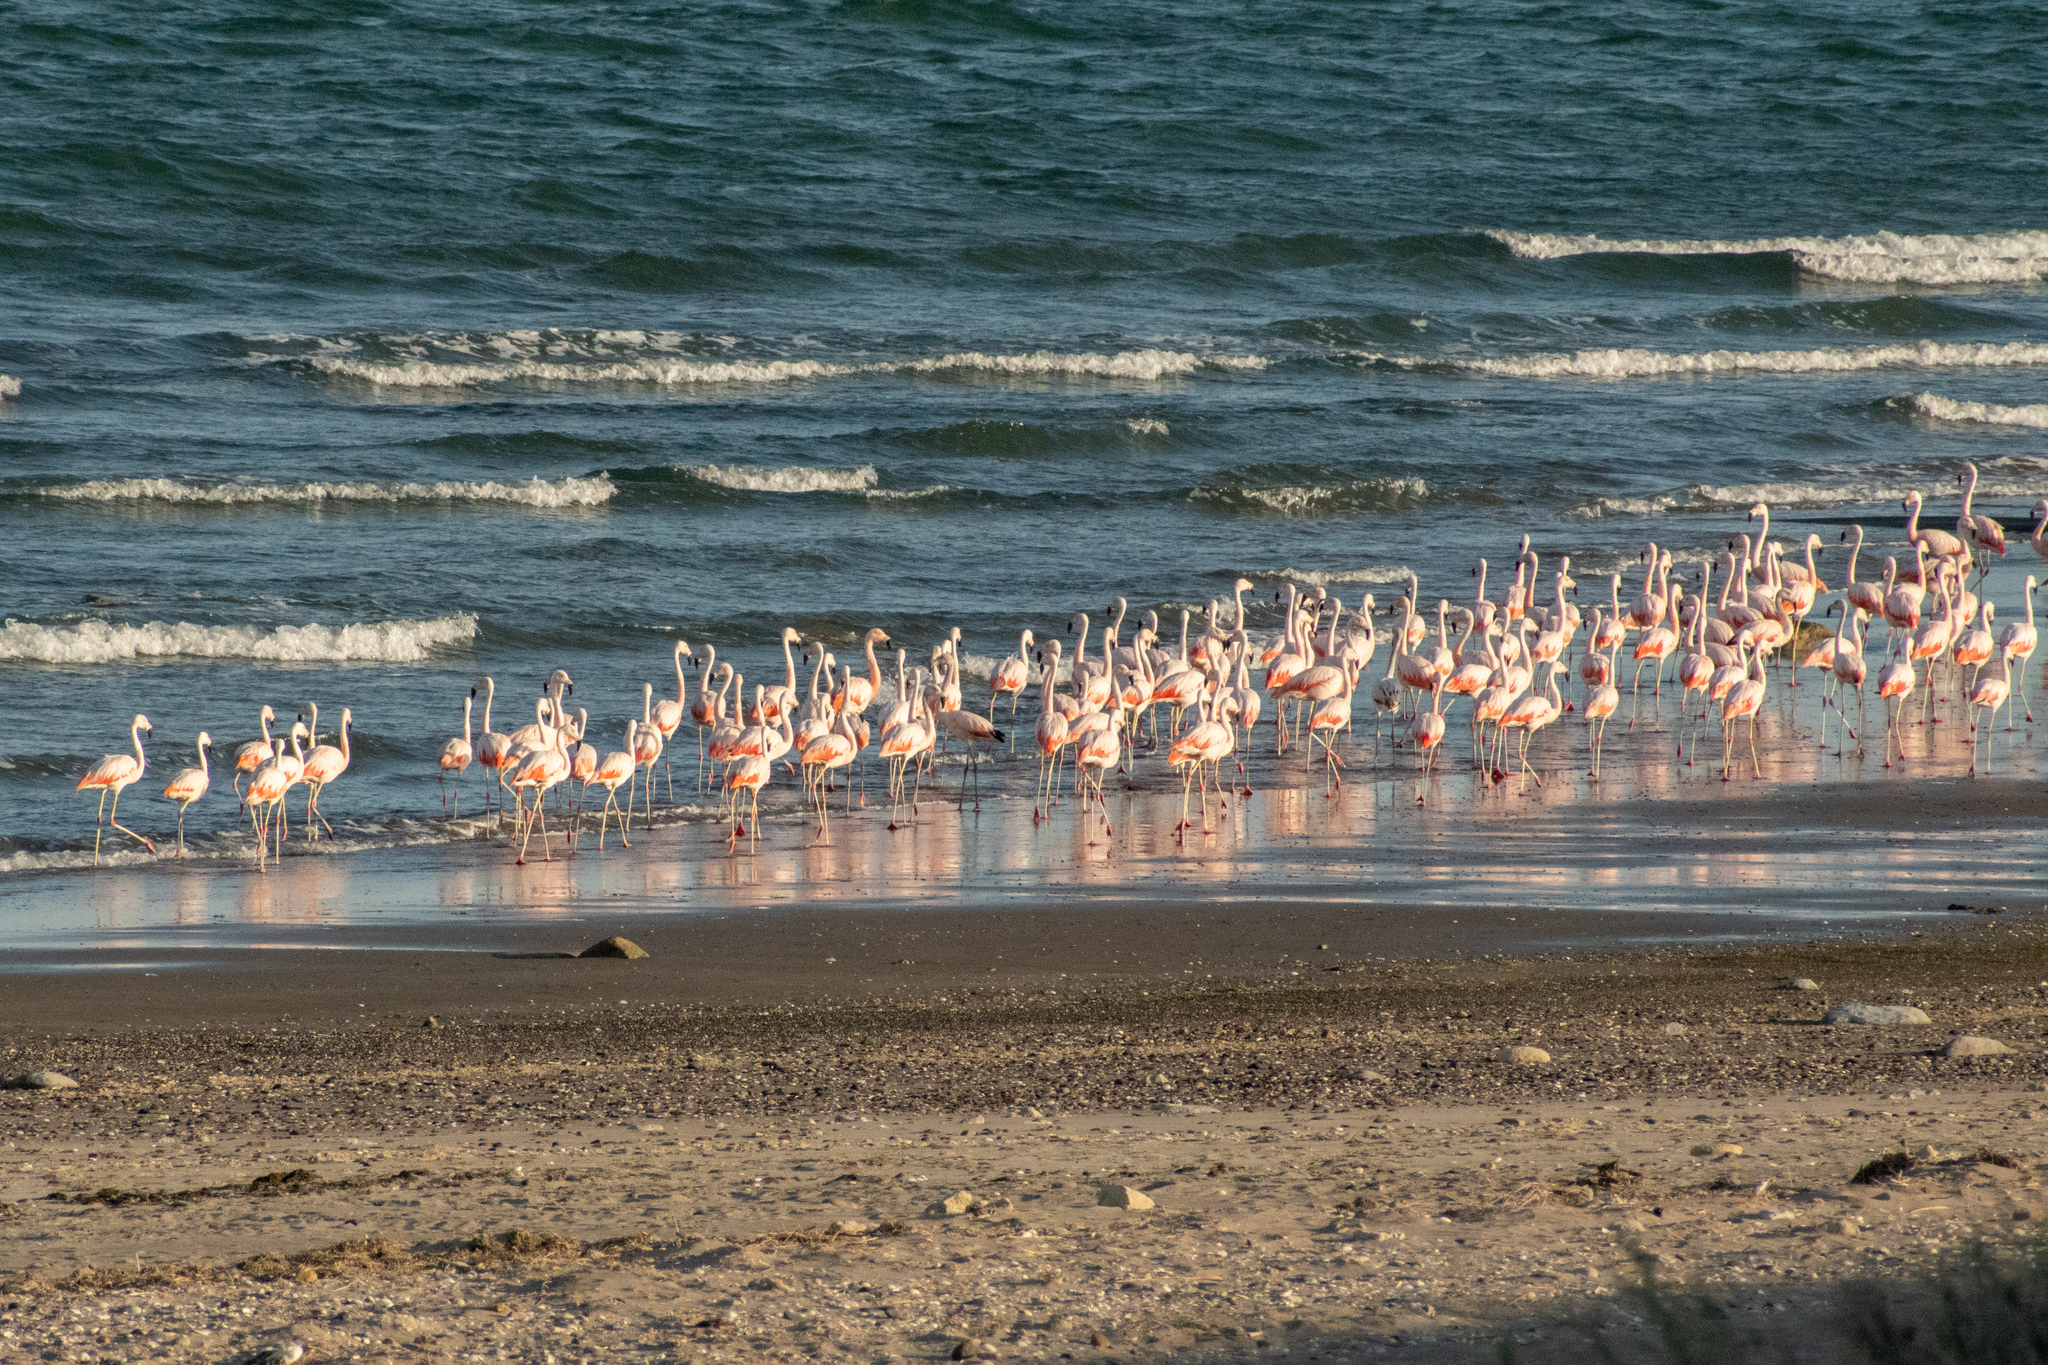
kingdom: Animalia
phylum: Chordata
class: Aves
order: Phoenicopteriformes
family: Phoenicopteridae
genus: Phoenicopterus
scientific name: Phoenicopterus chilensis
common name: Chilean flamingo
